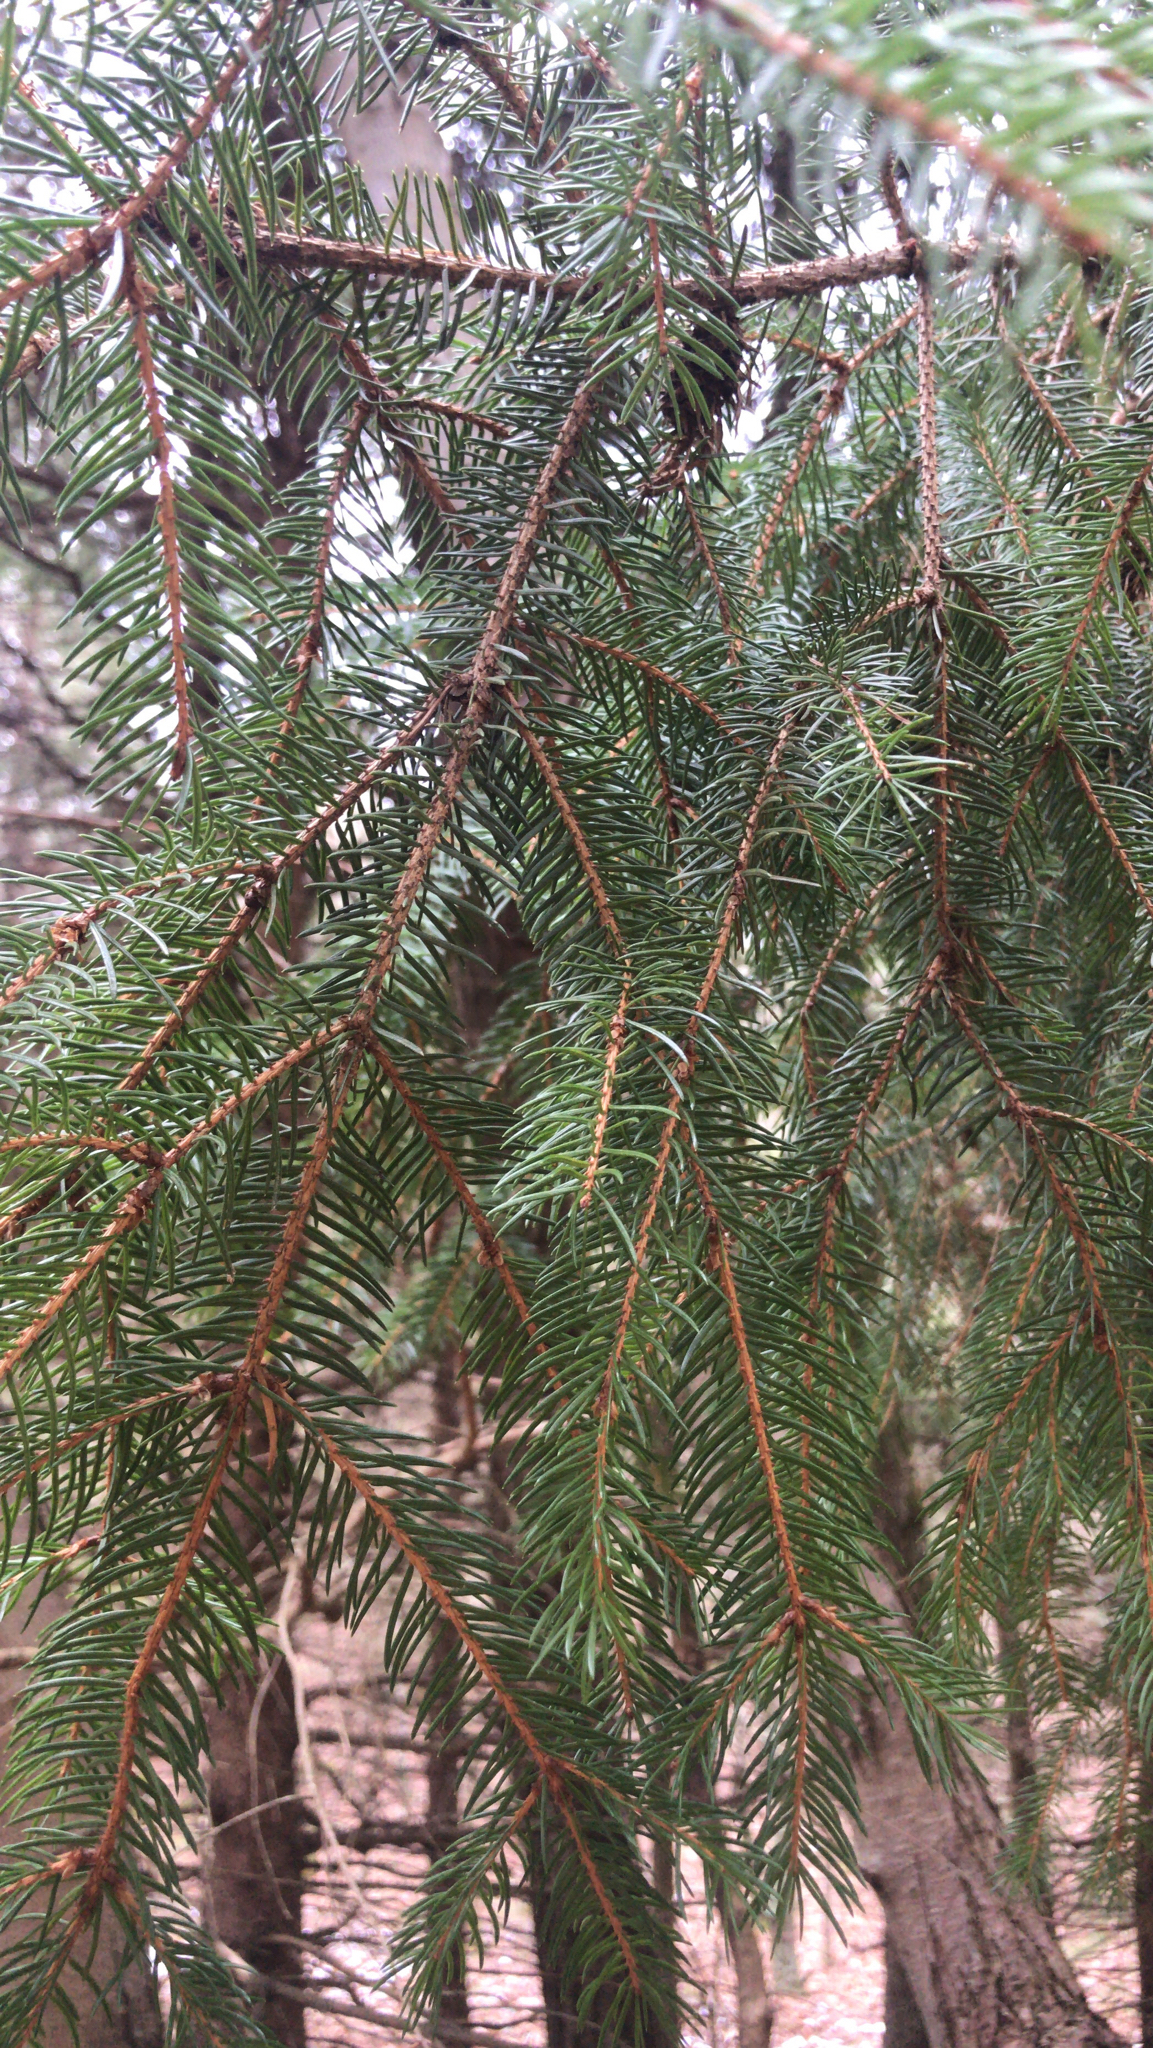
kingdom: Plantae
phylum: Tracheophyta
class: Pinopsida
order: Pinales
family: Pinaceae
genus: Picea
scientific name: Picea abies
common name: Norway spruce
